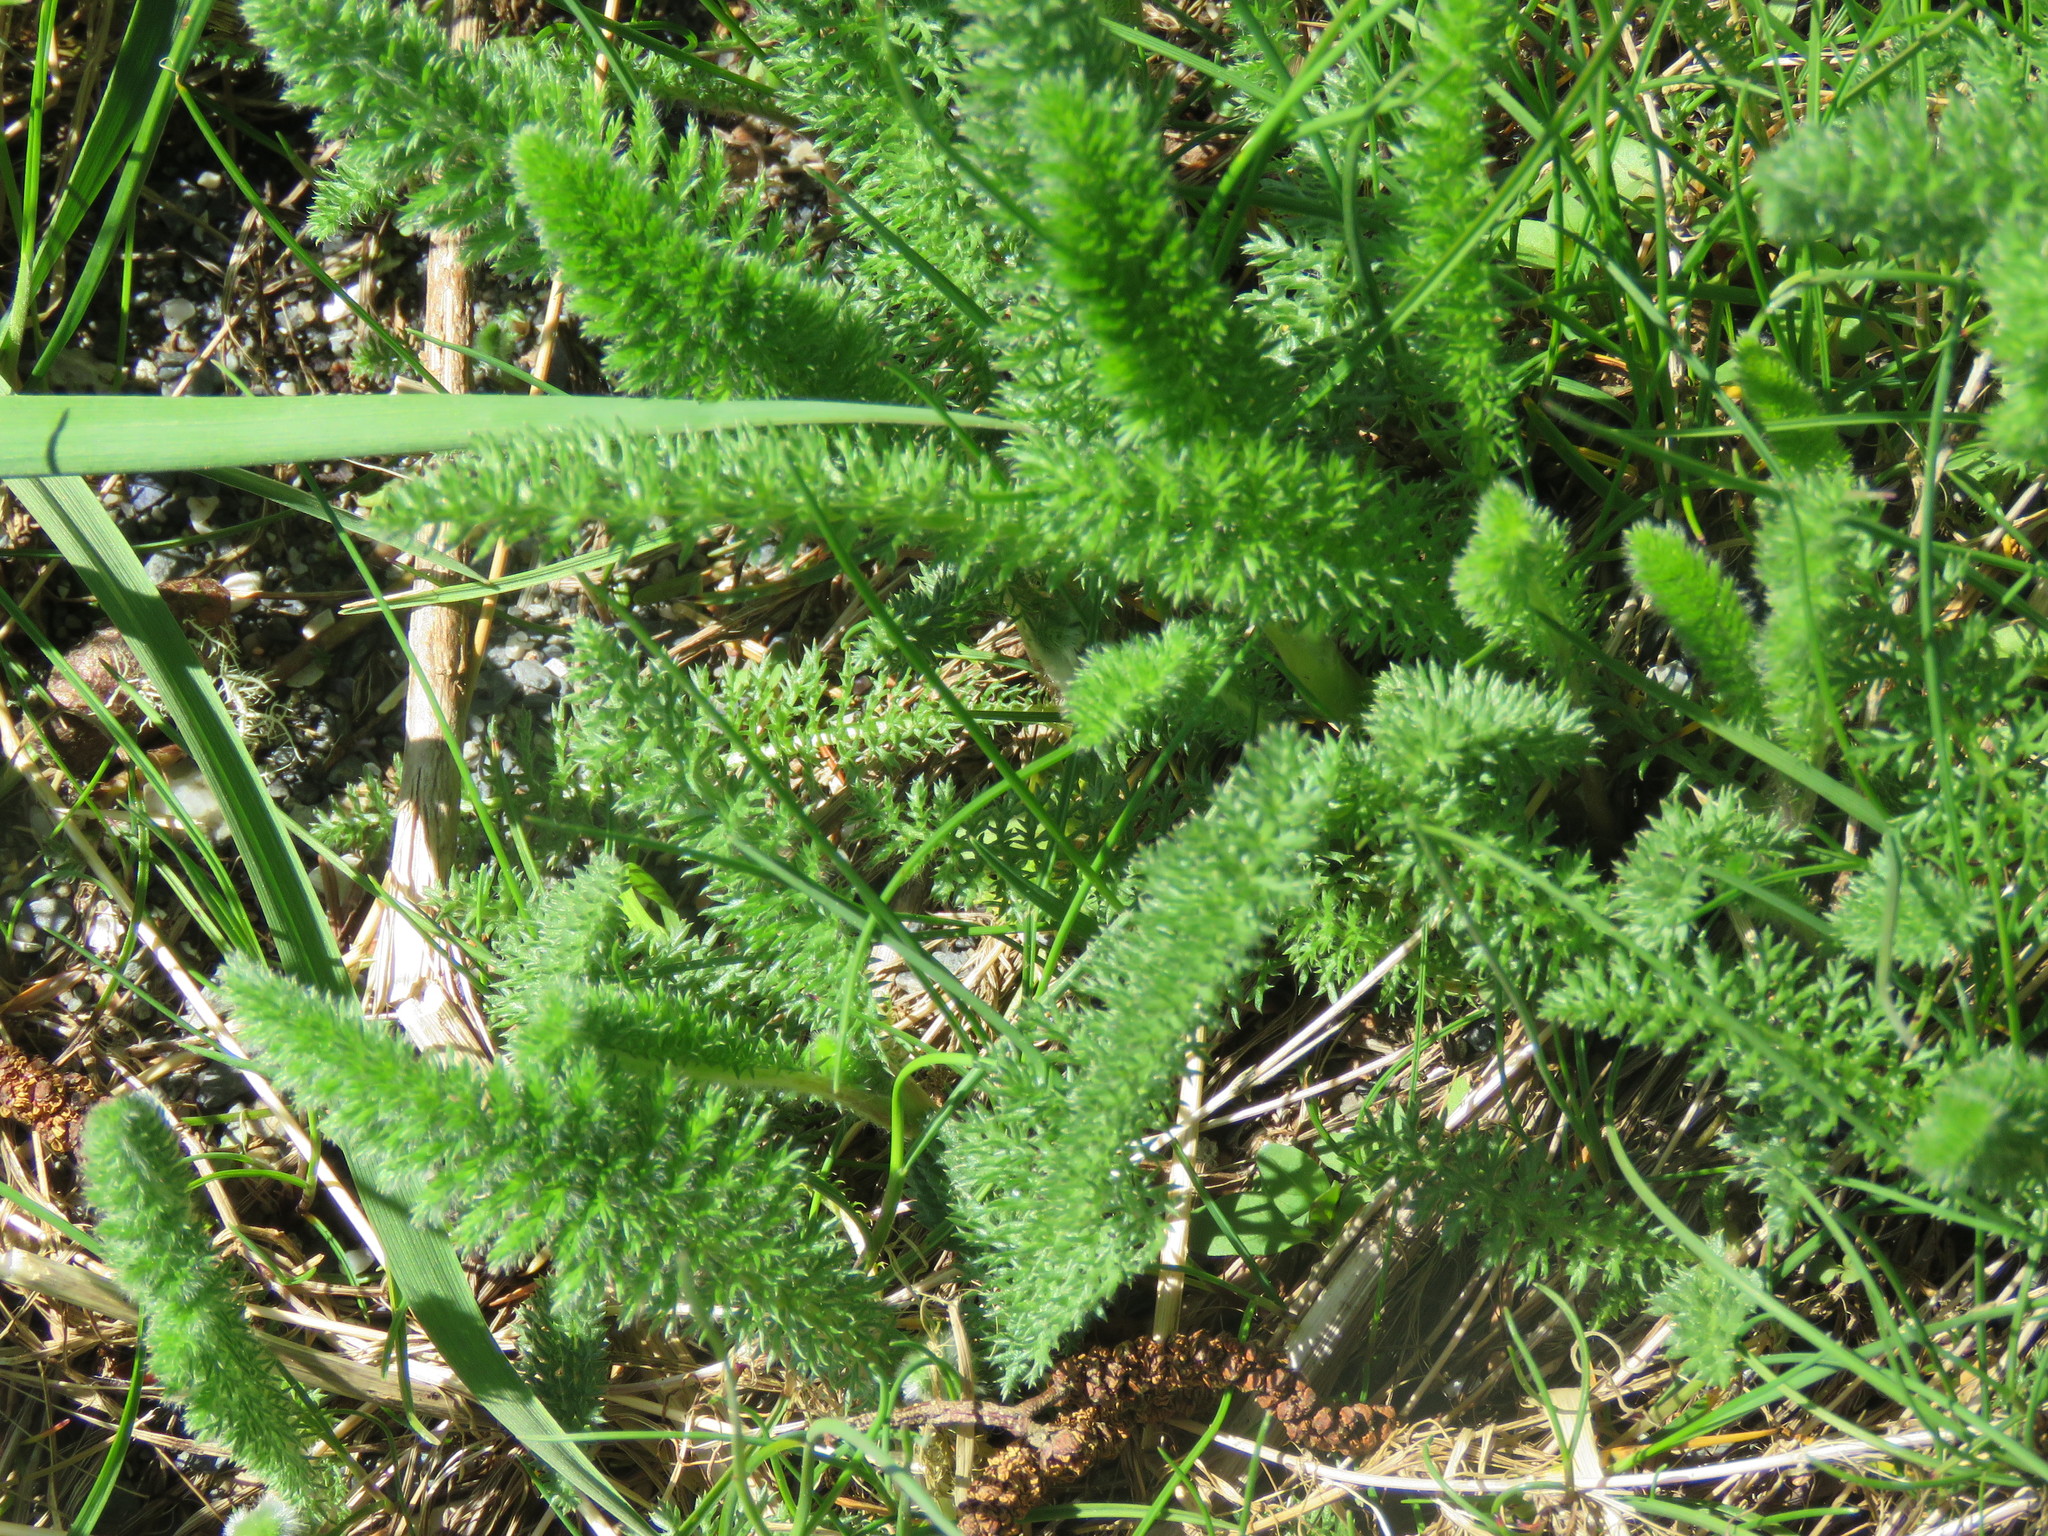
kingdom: Plantae
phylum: Tracheophyta
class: Magnoliopsida
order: Asterales
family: Asteraceae
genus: Achillea
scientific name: Achillea millefolium
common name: Yarrow
